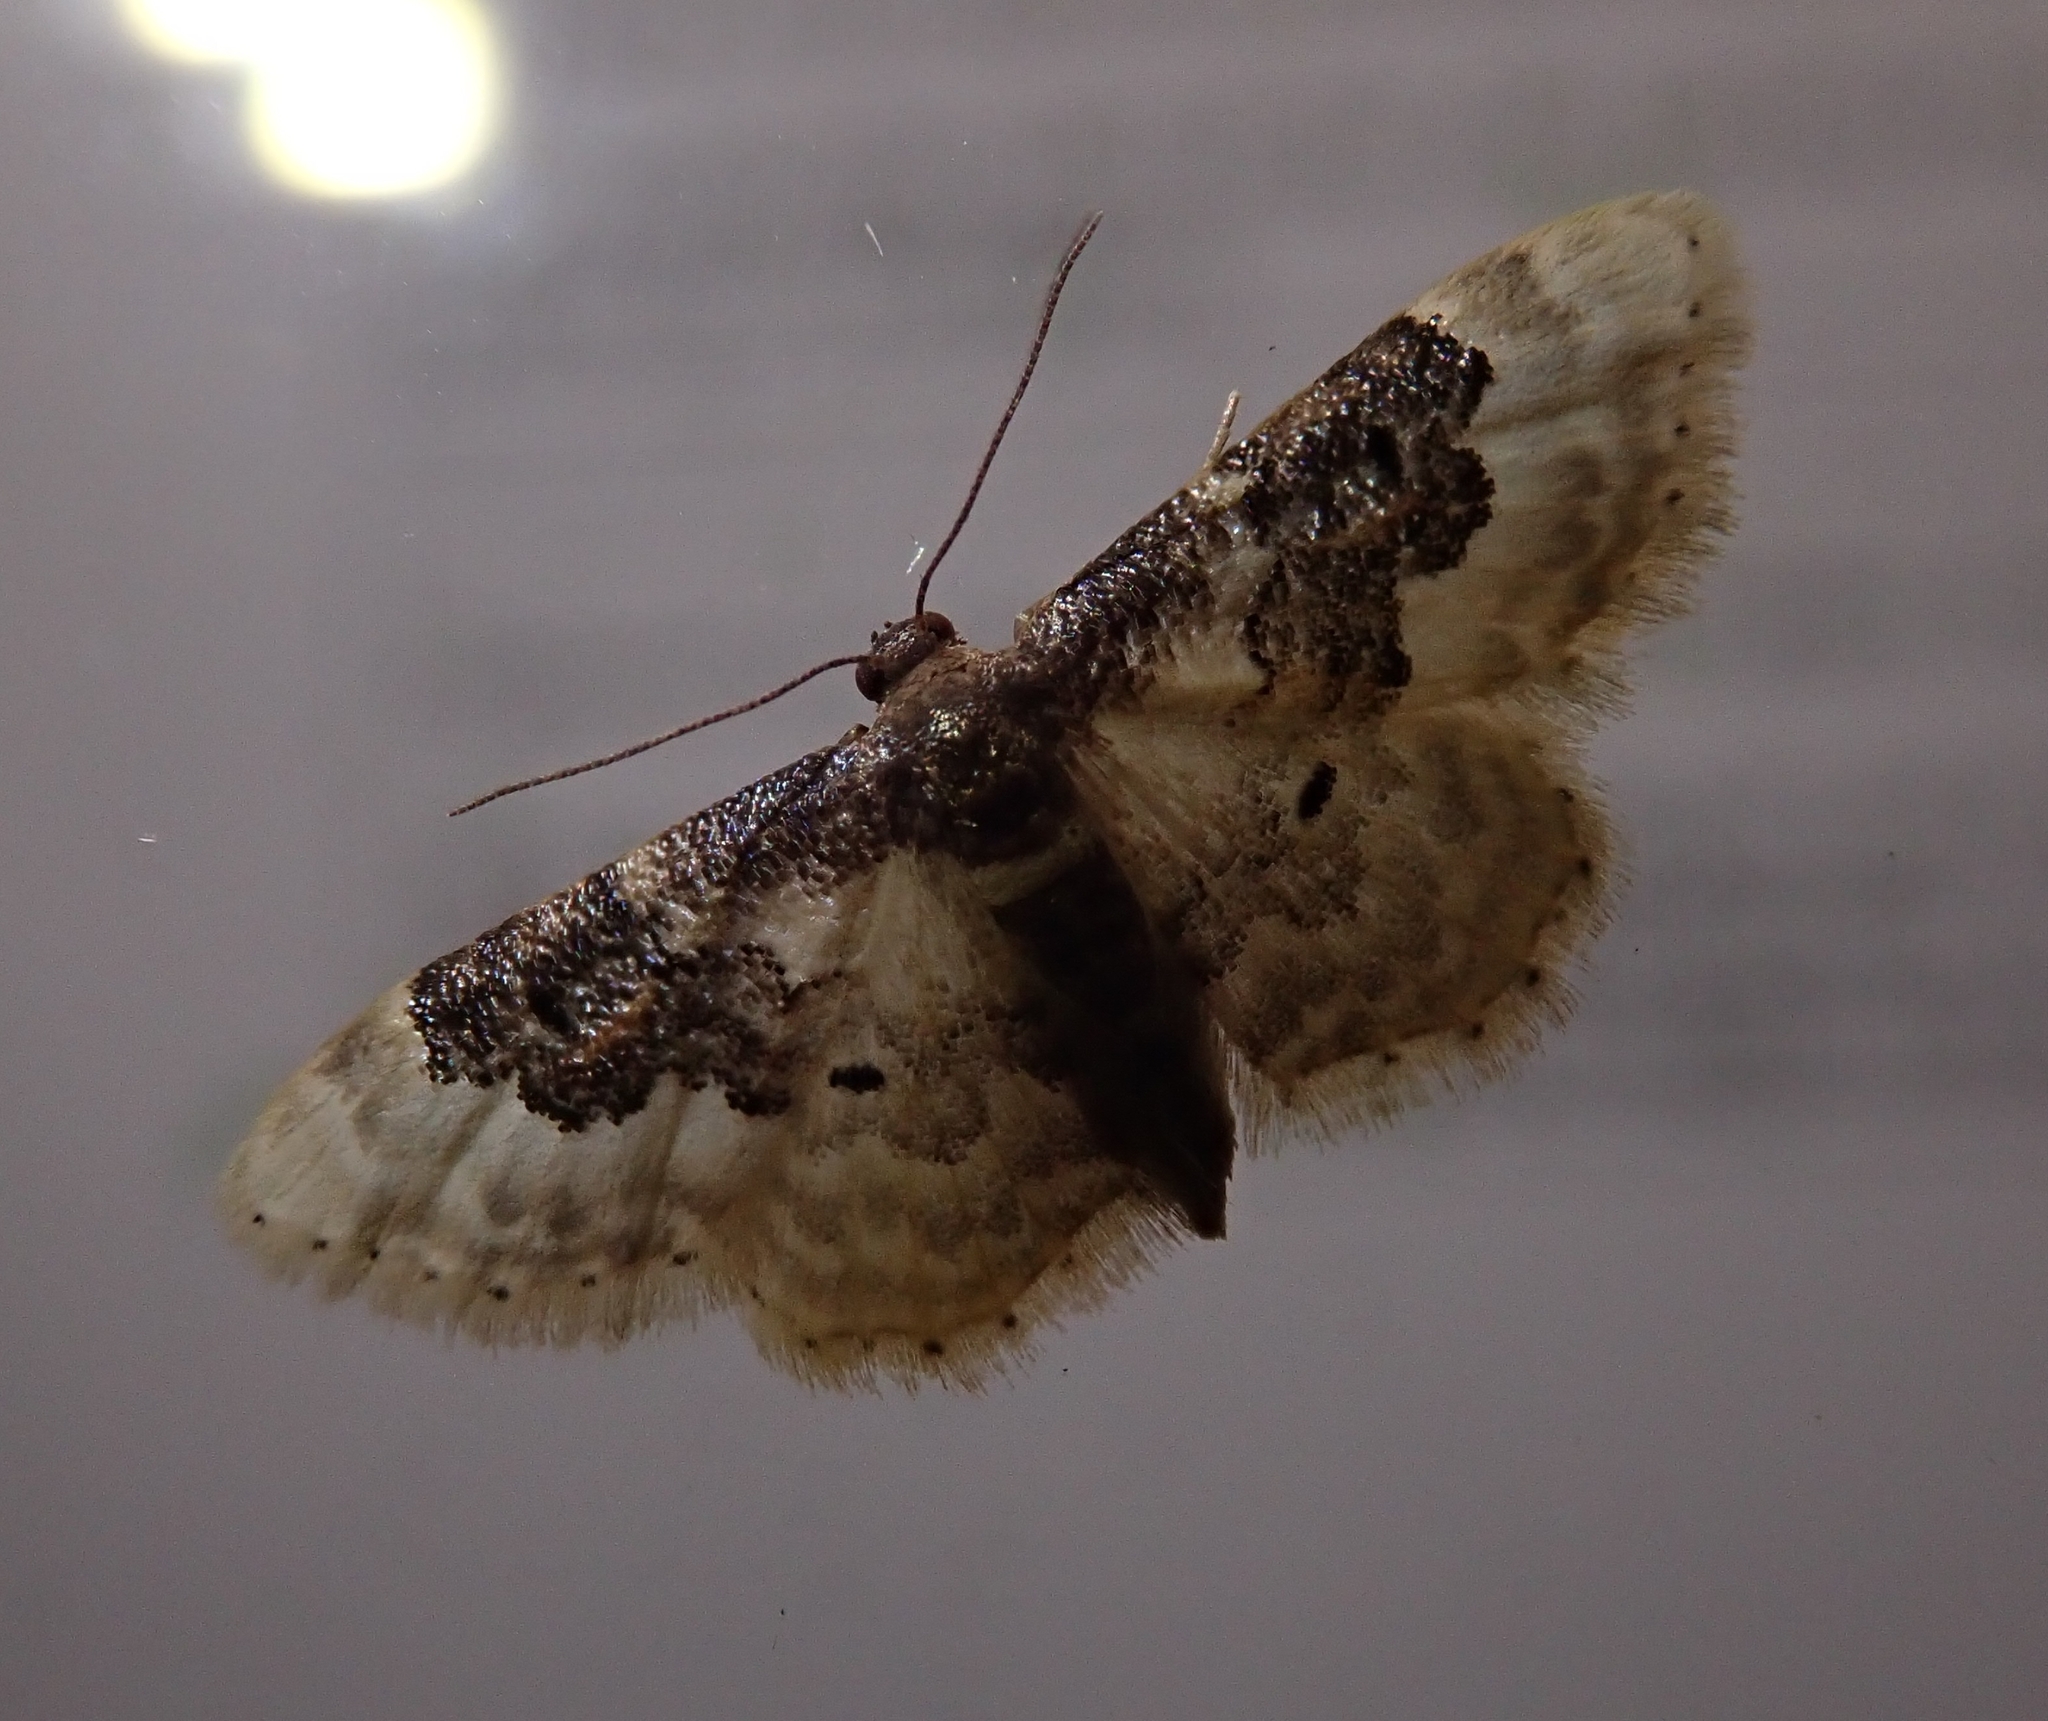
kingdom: Animalia
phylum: Arthropoda
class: Insecta
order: Lepidoptera
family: Geometridae
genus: Idaea
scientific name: Idaea rusticata
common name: Least carpet
